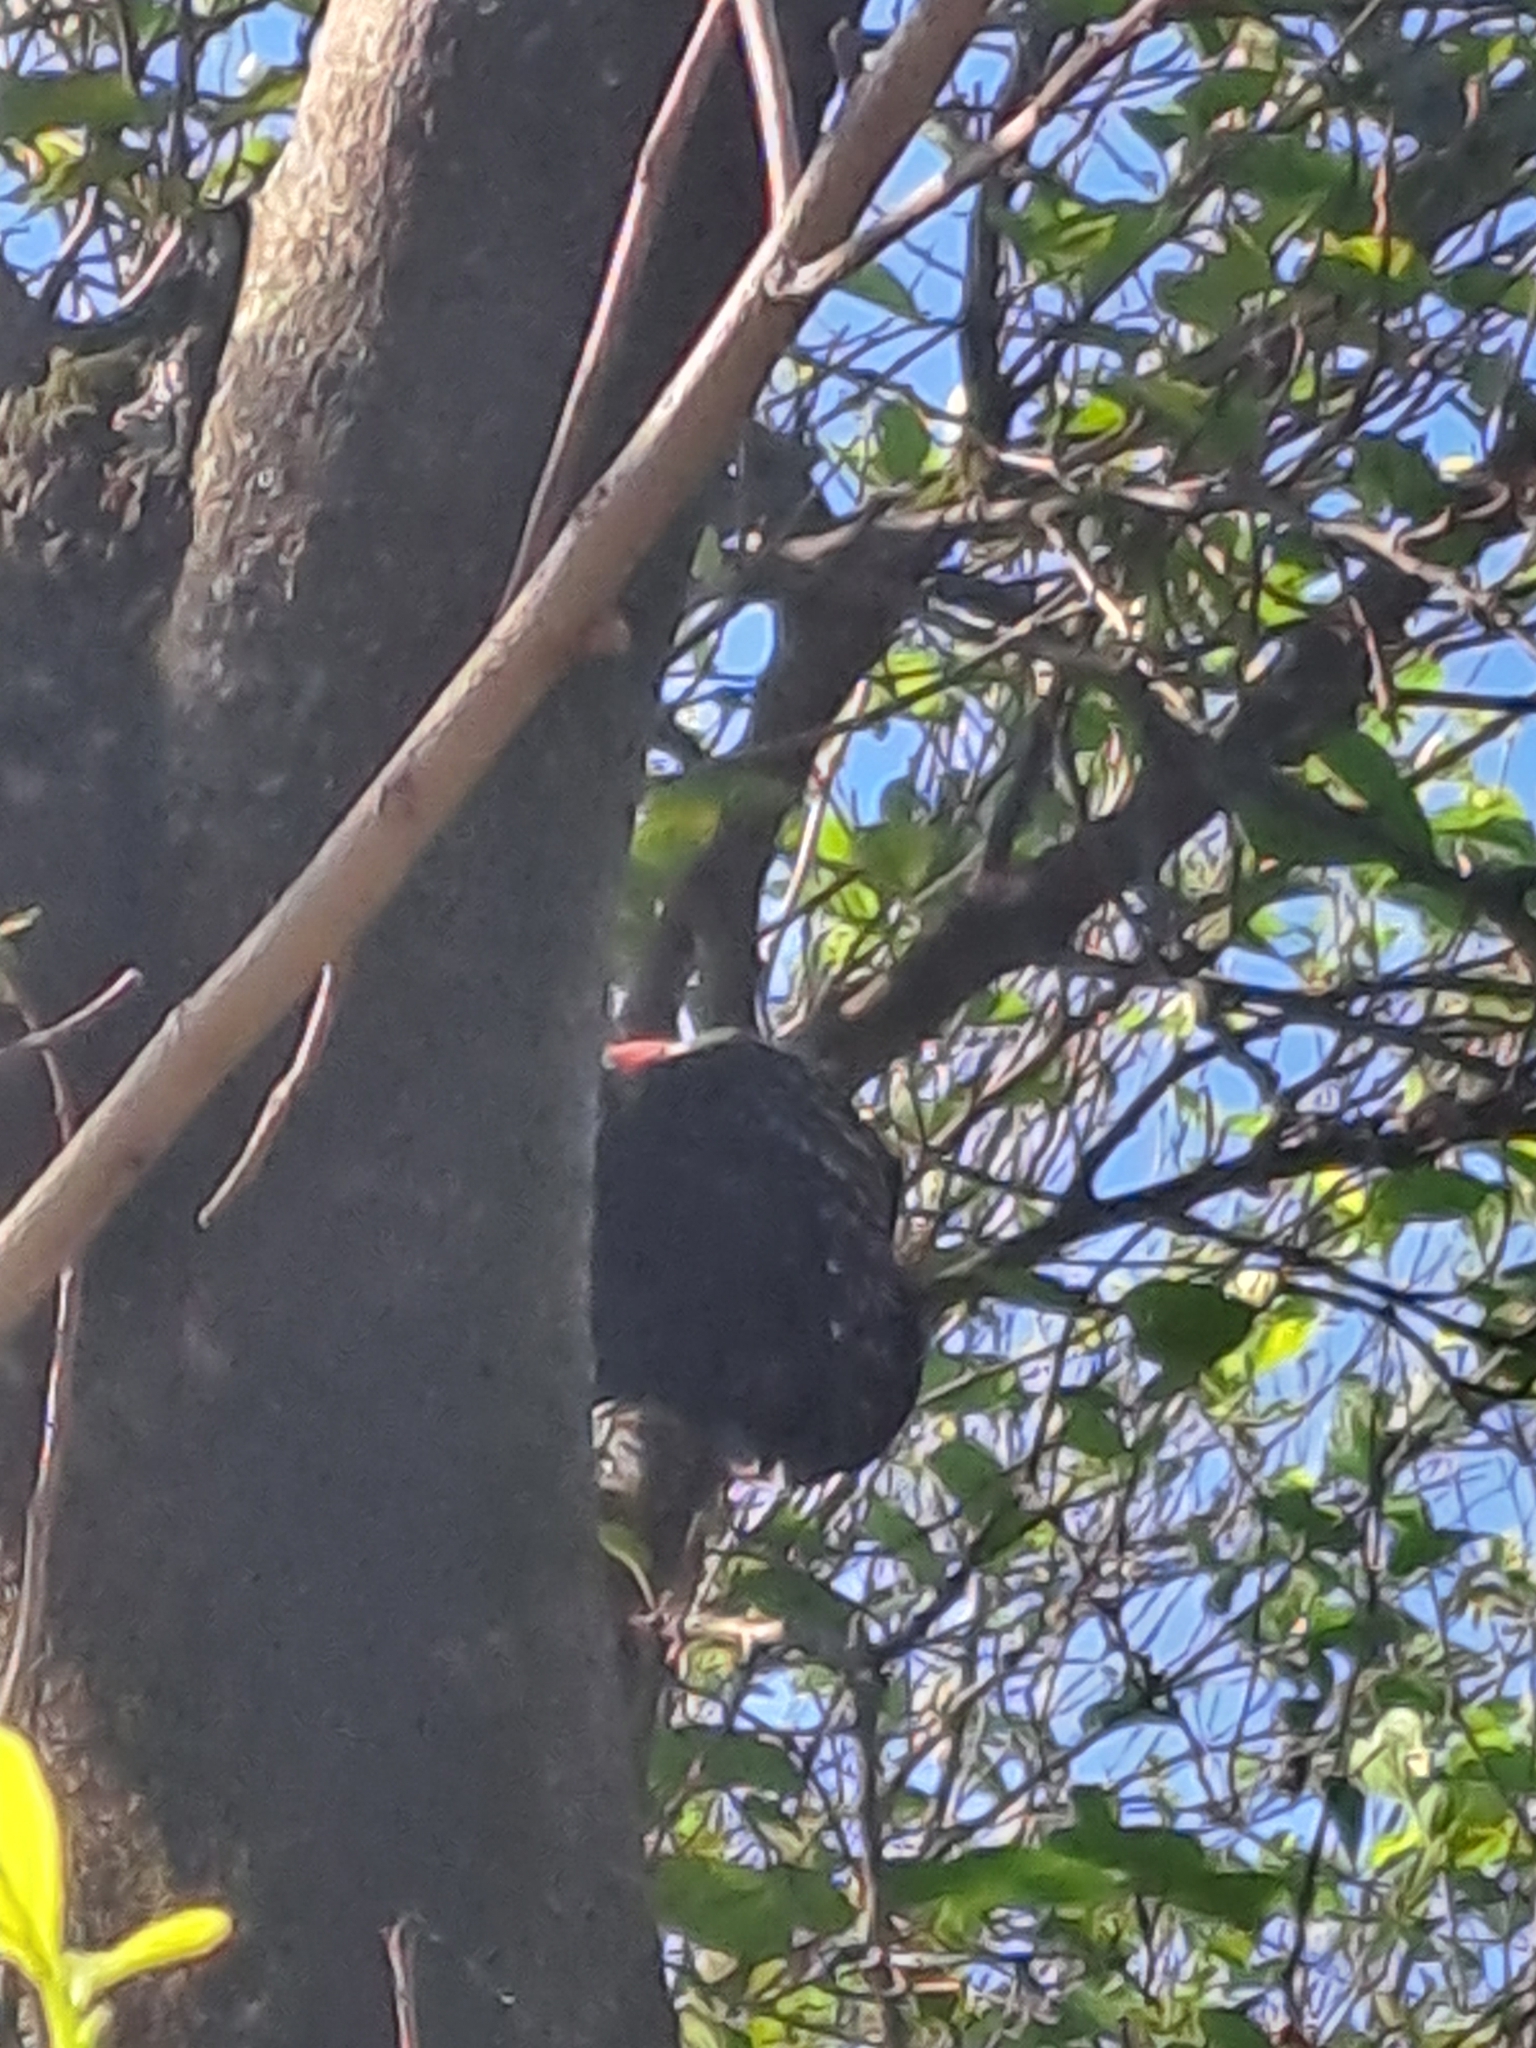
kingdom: Animalia
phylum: Chordata
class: Aves
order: Piciformes
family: Picidae
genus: Celeus
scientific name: Celeus flavescens
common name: Blond-crested woodpecker
